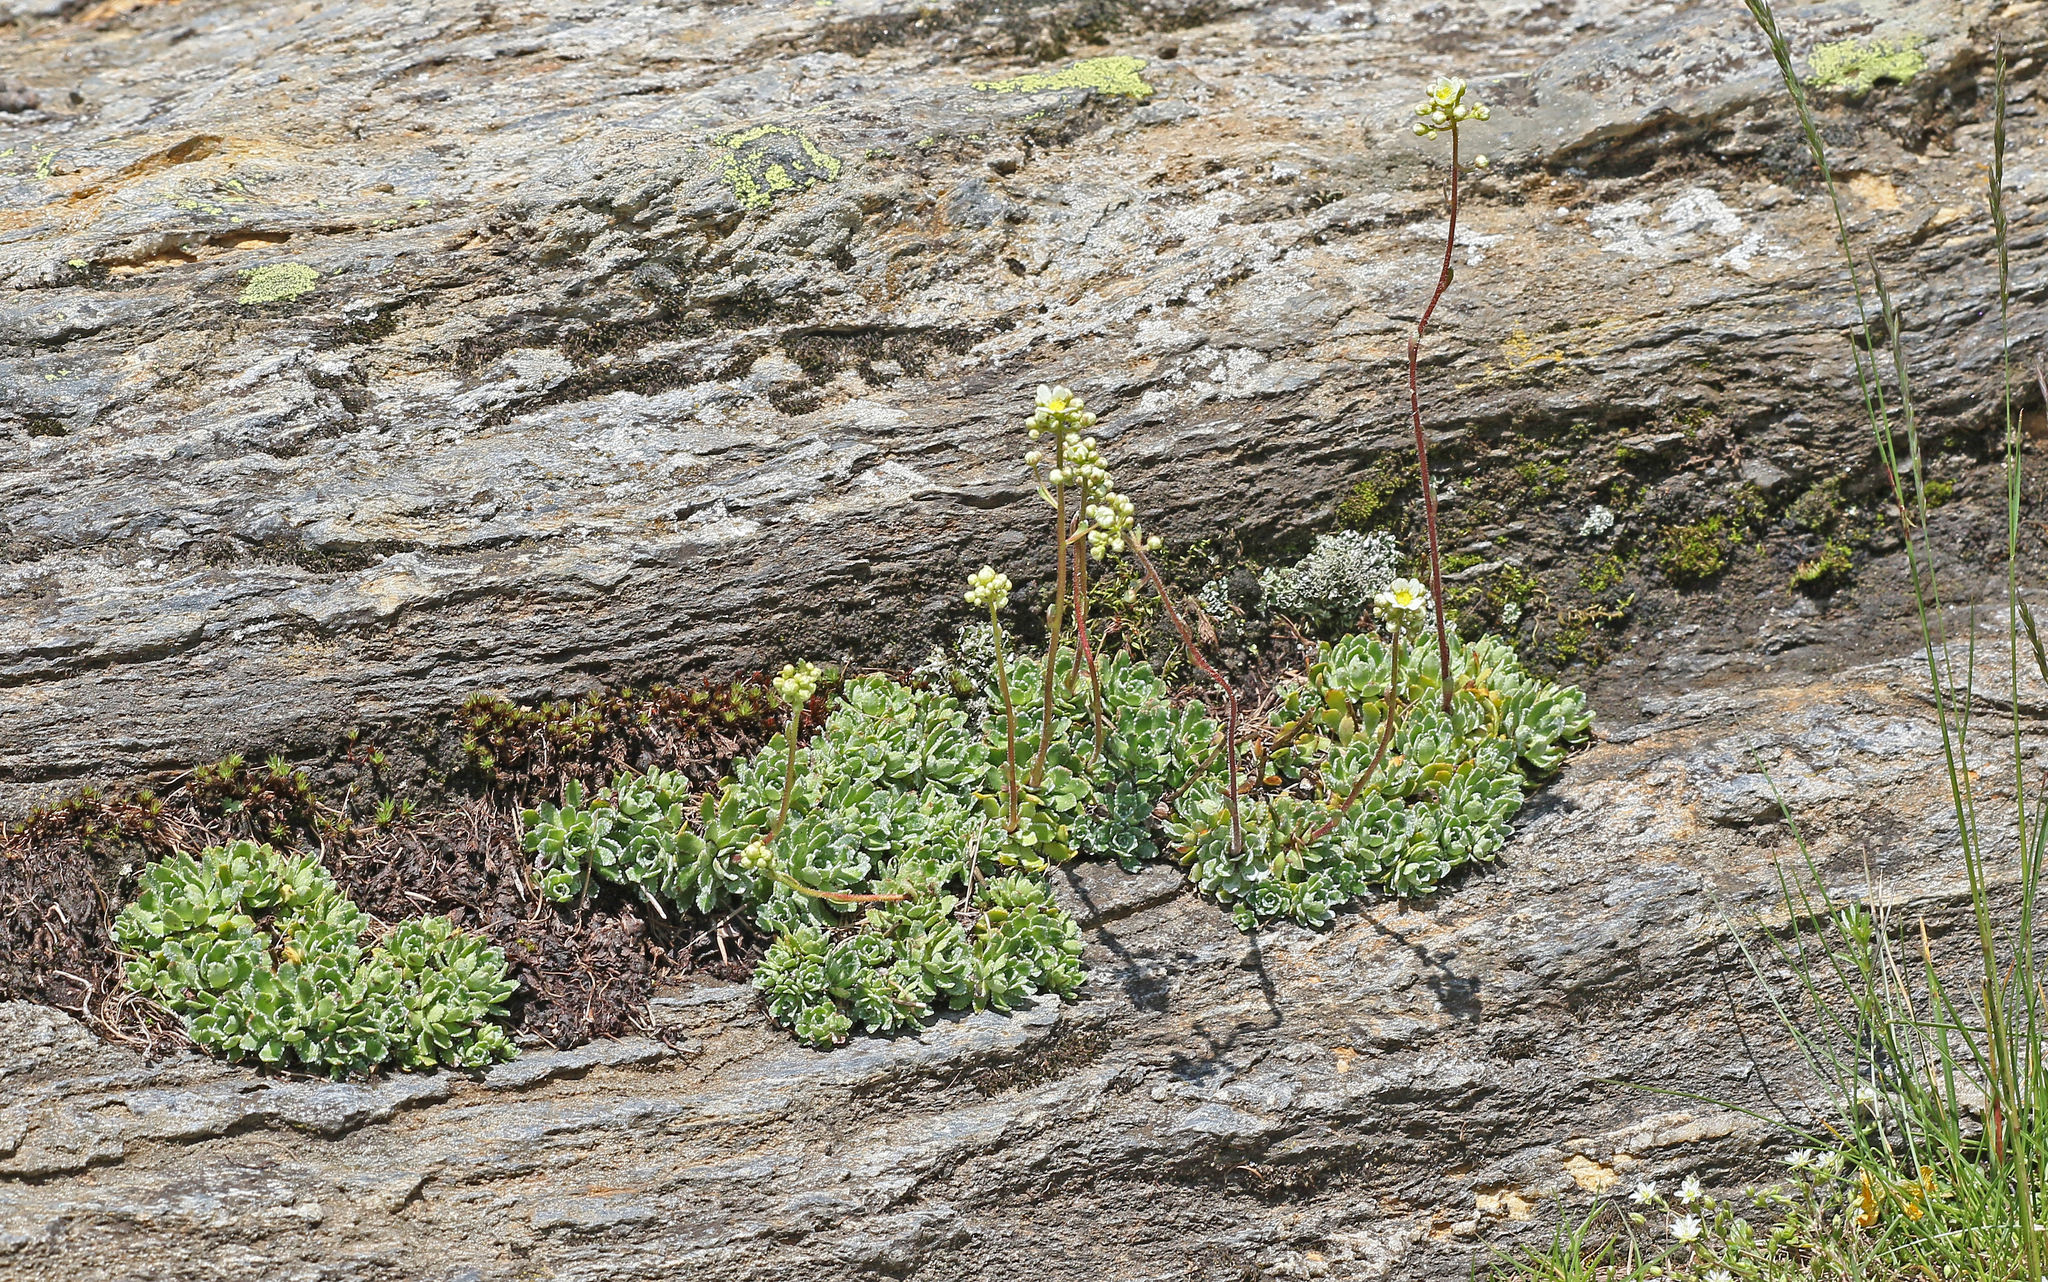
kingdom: Plantae
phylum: Tracheophyta
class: Magnoliopsida
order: Saxifragales
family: Saxifragaceae
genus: Saxifraga
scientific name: Saxifraga paniculata
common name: Livelong saxifrage
